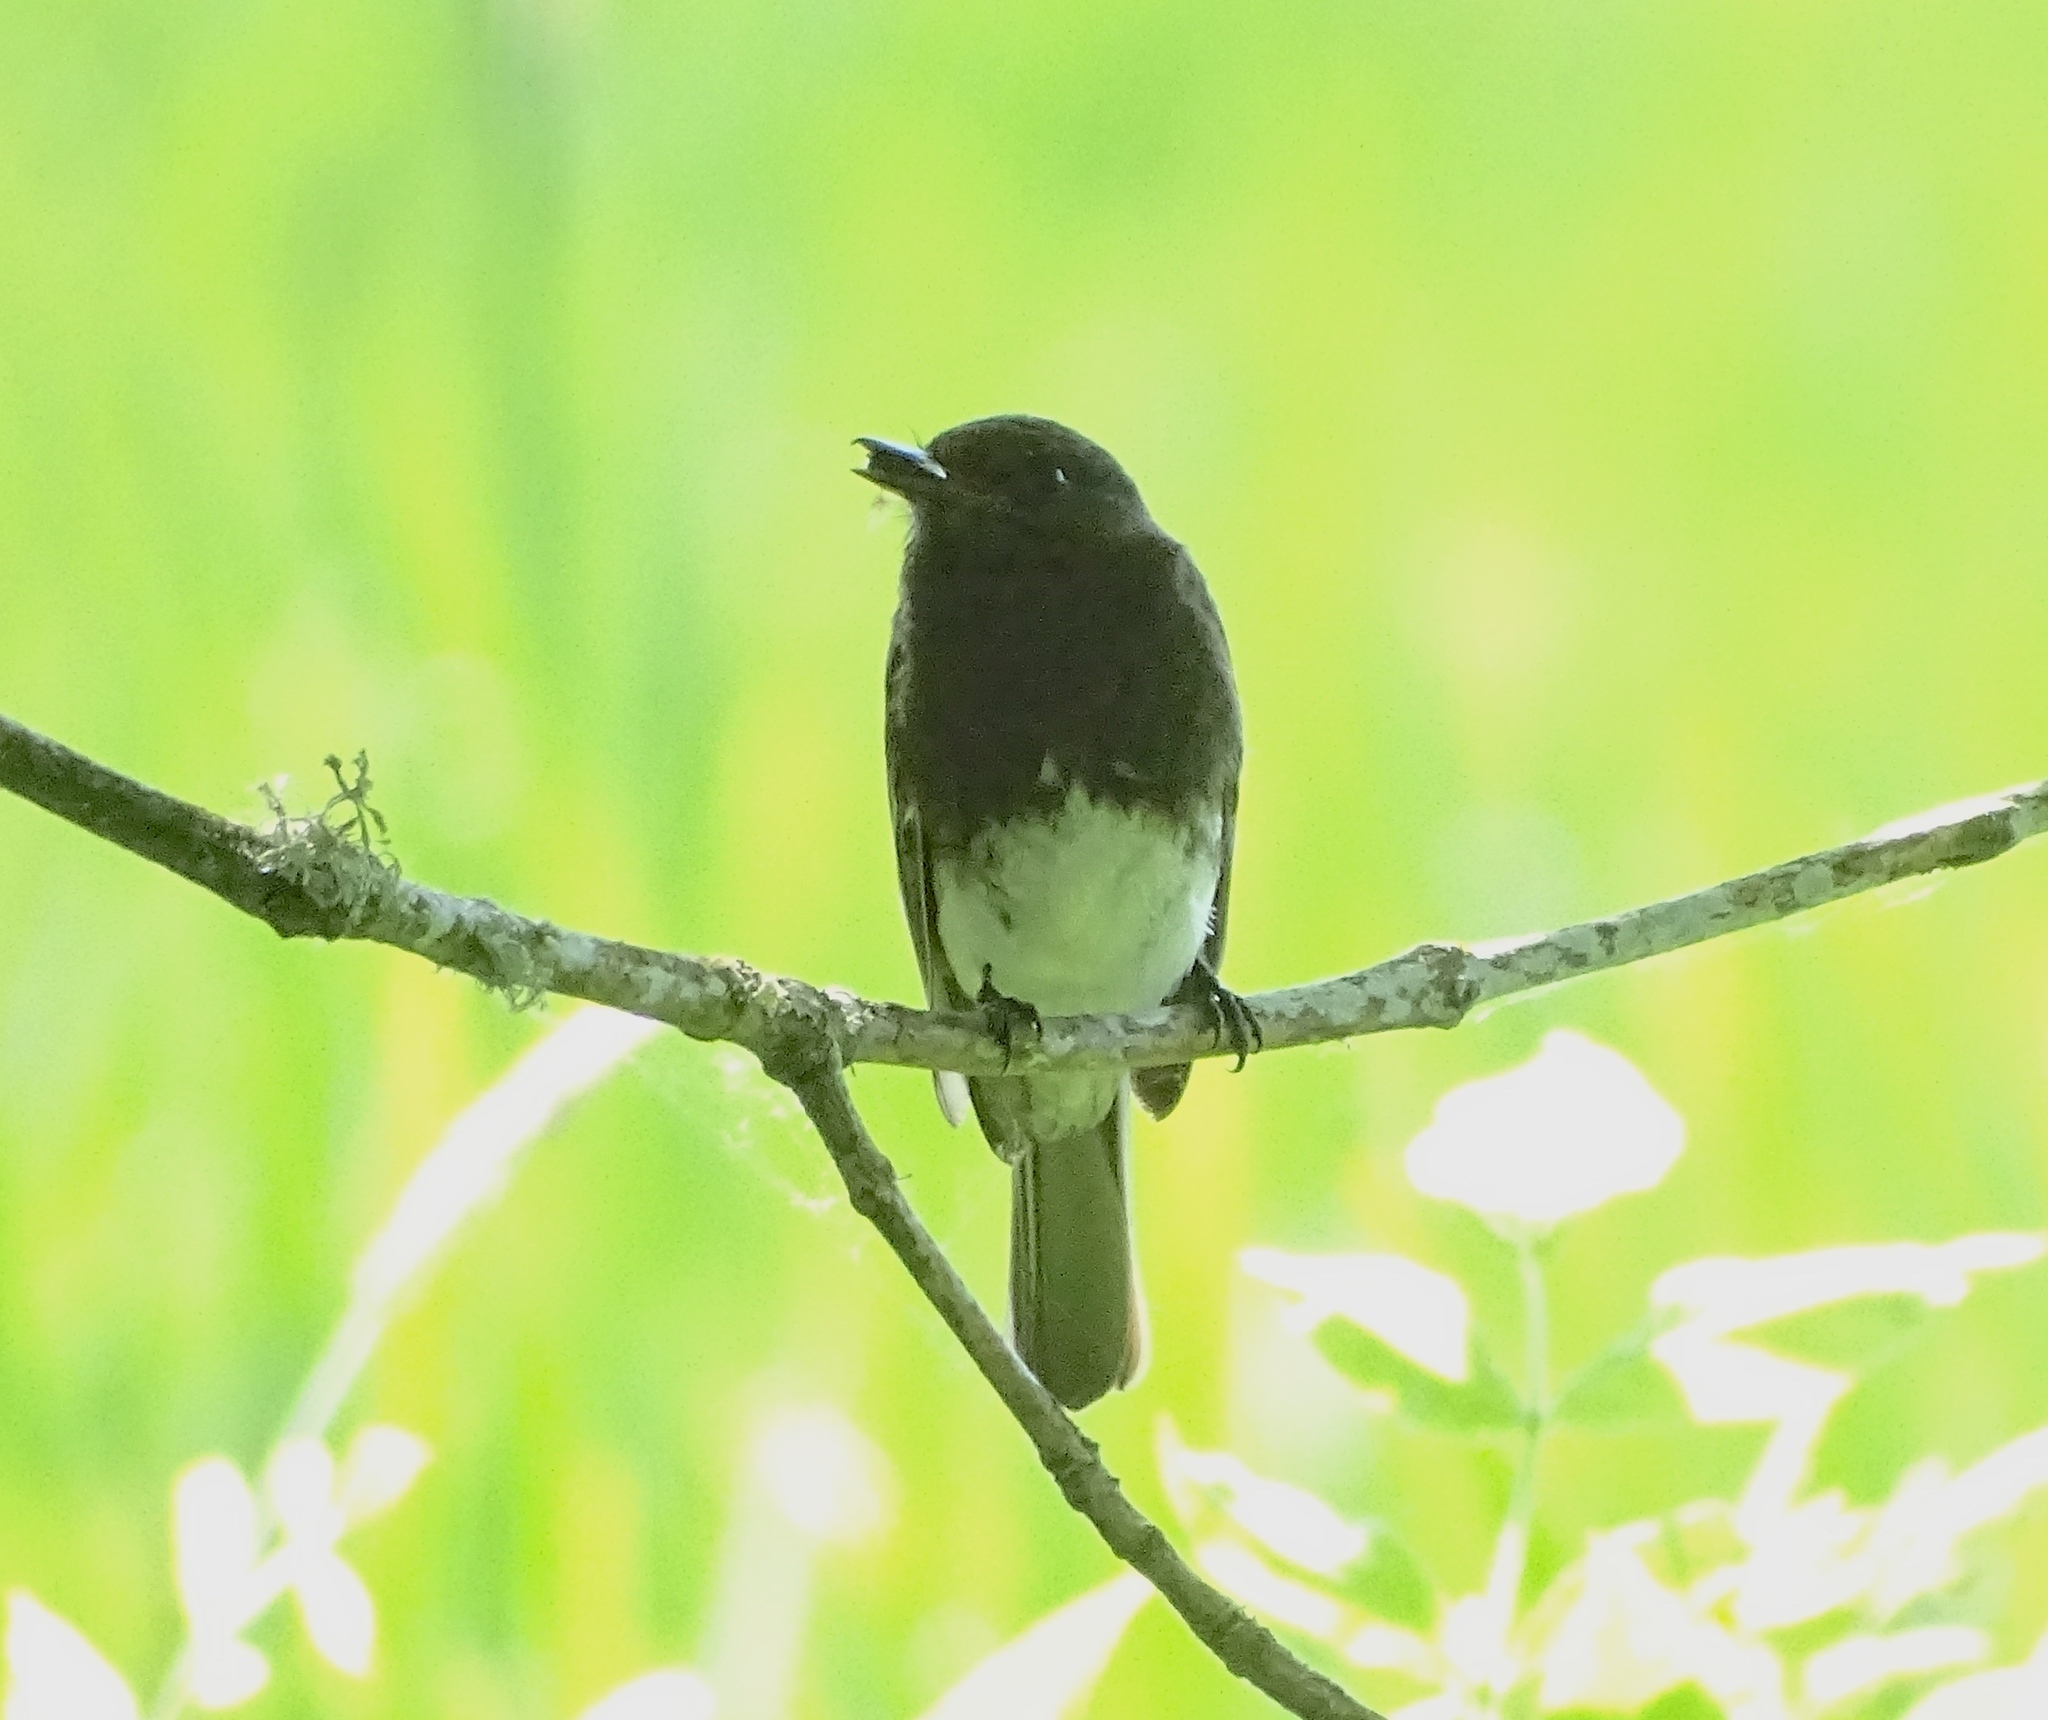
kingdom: Animalia
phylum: Chordata
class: Aves
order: Passeriformes
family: Tyrannidae
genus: Sayornis
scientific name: Sayornis nigricans
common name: Black phoebe
